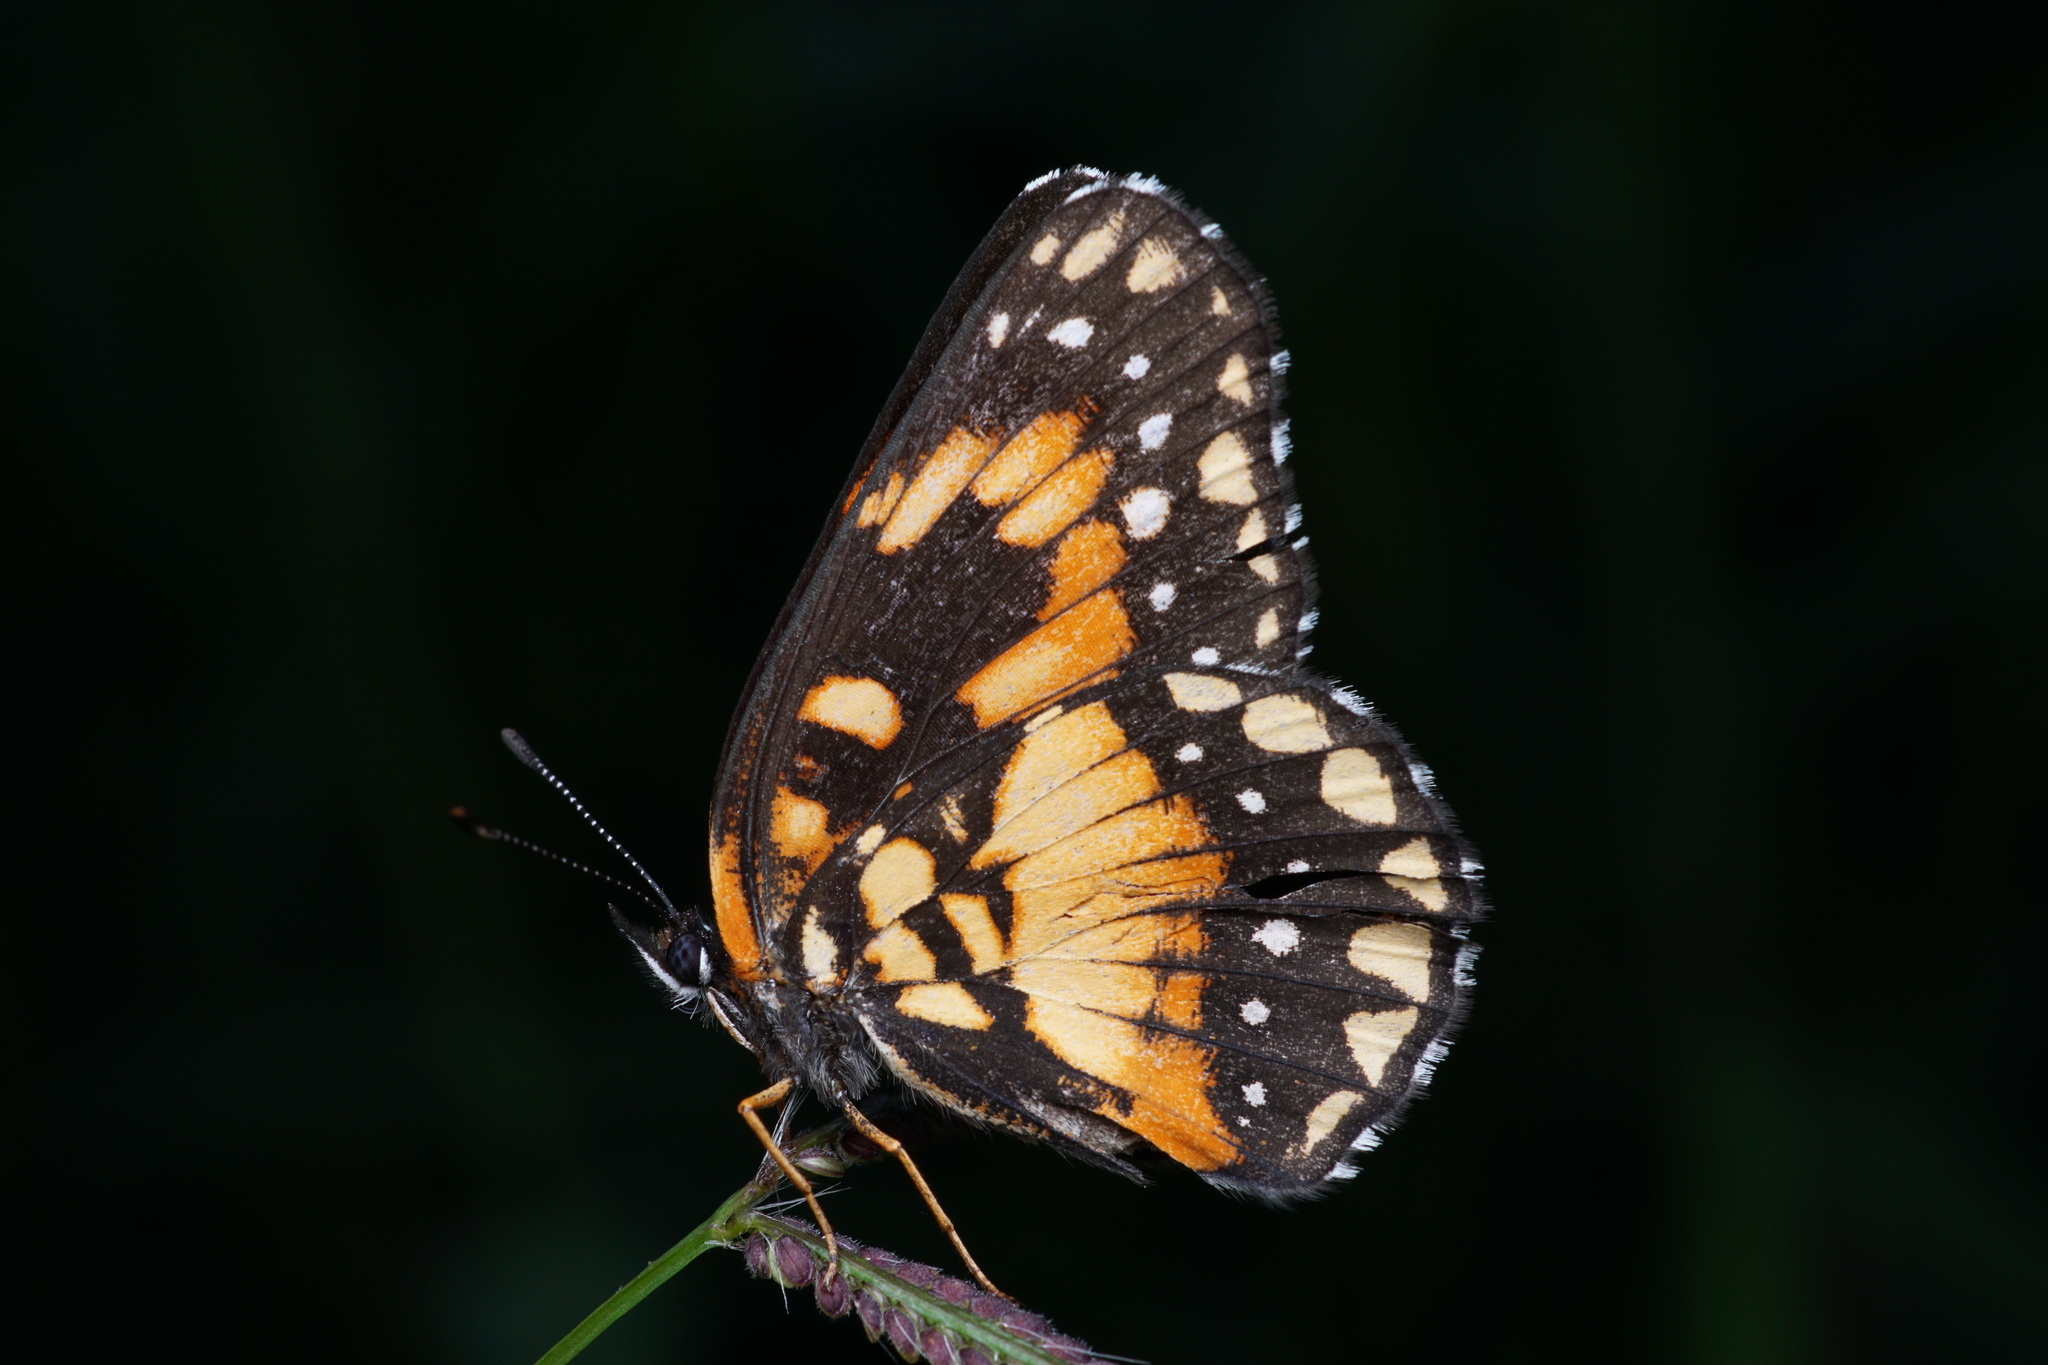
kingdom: Animalia
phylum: Arthropoda
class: Insecta
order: Lepidoptera
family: Nymphalidae
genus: Chlosyne
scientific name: Chlosyne lacinia
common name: Bordered patch
